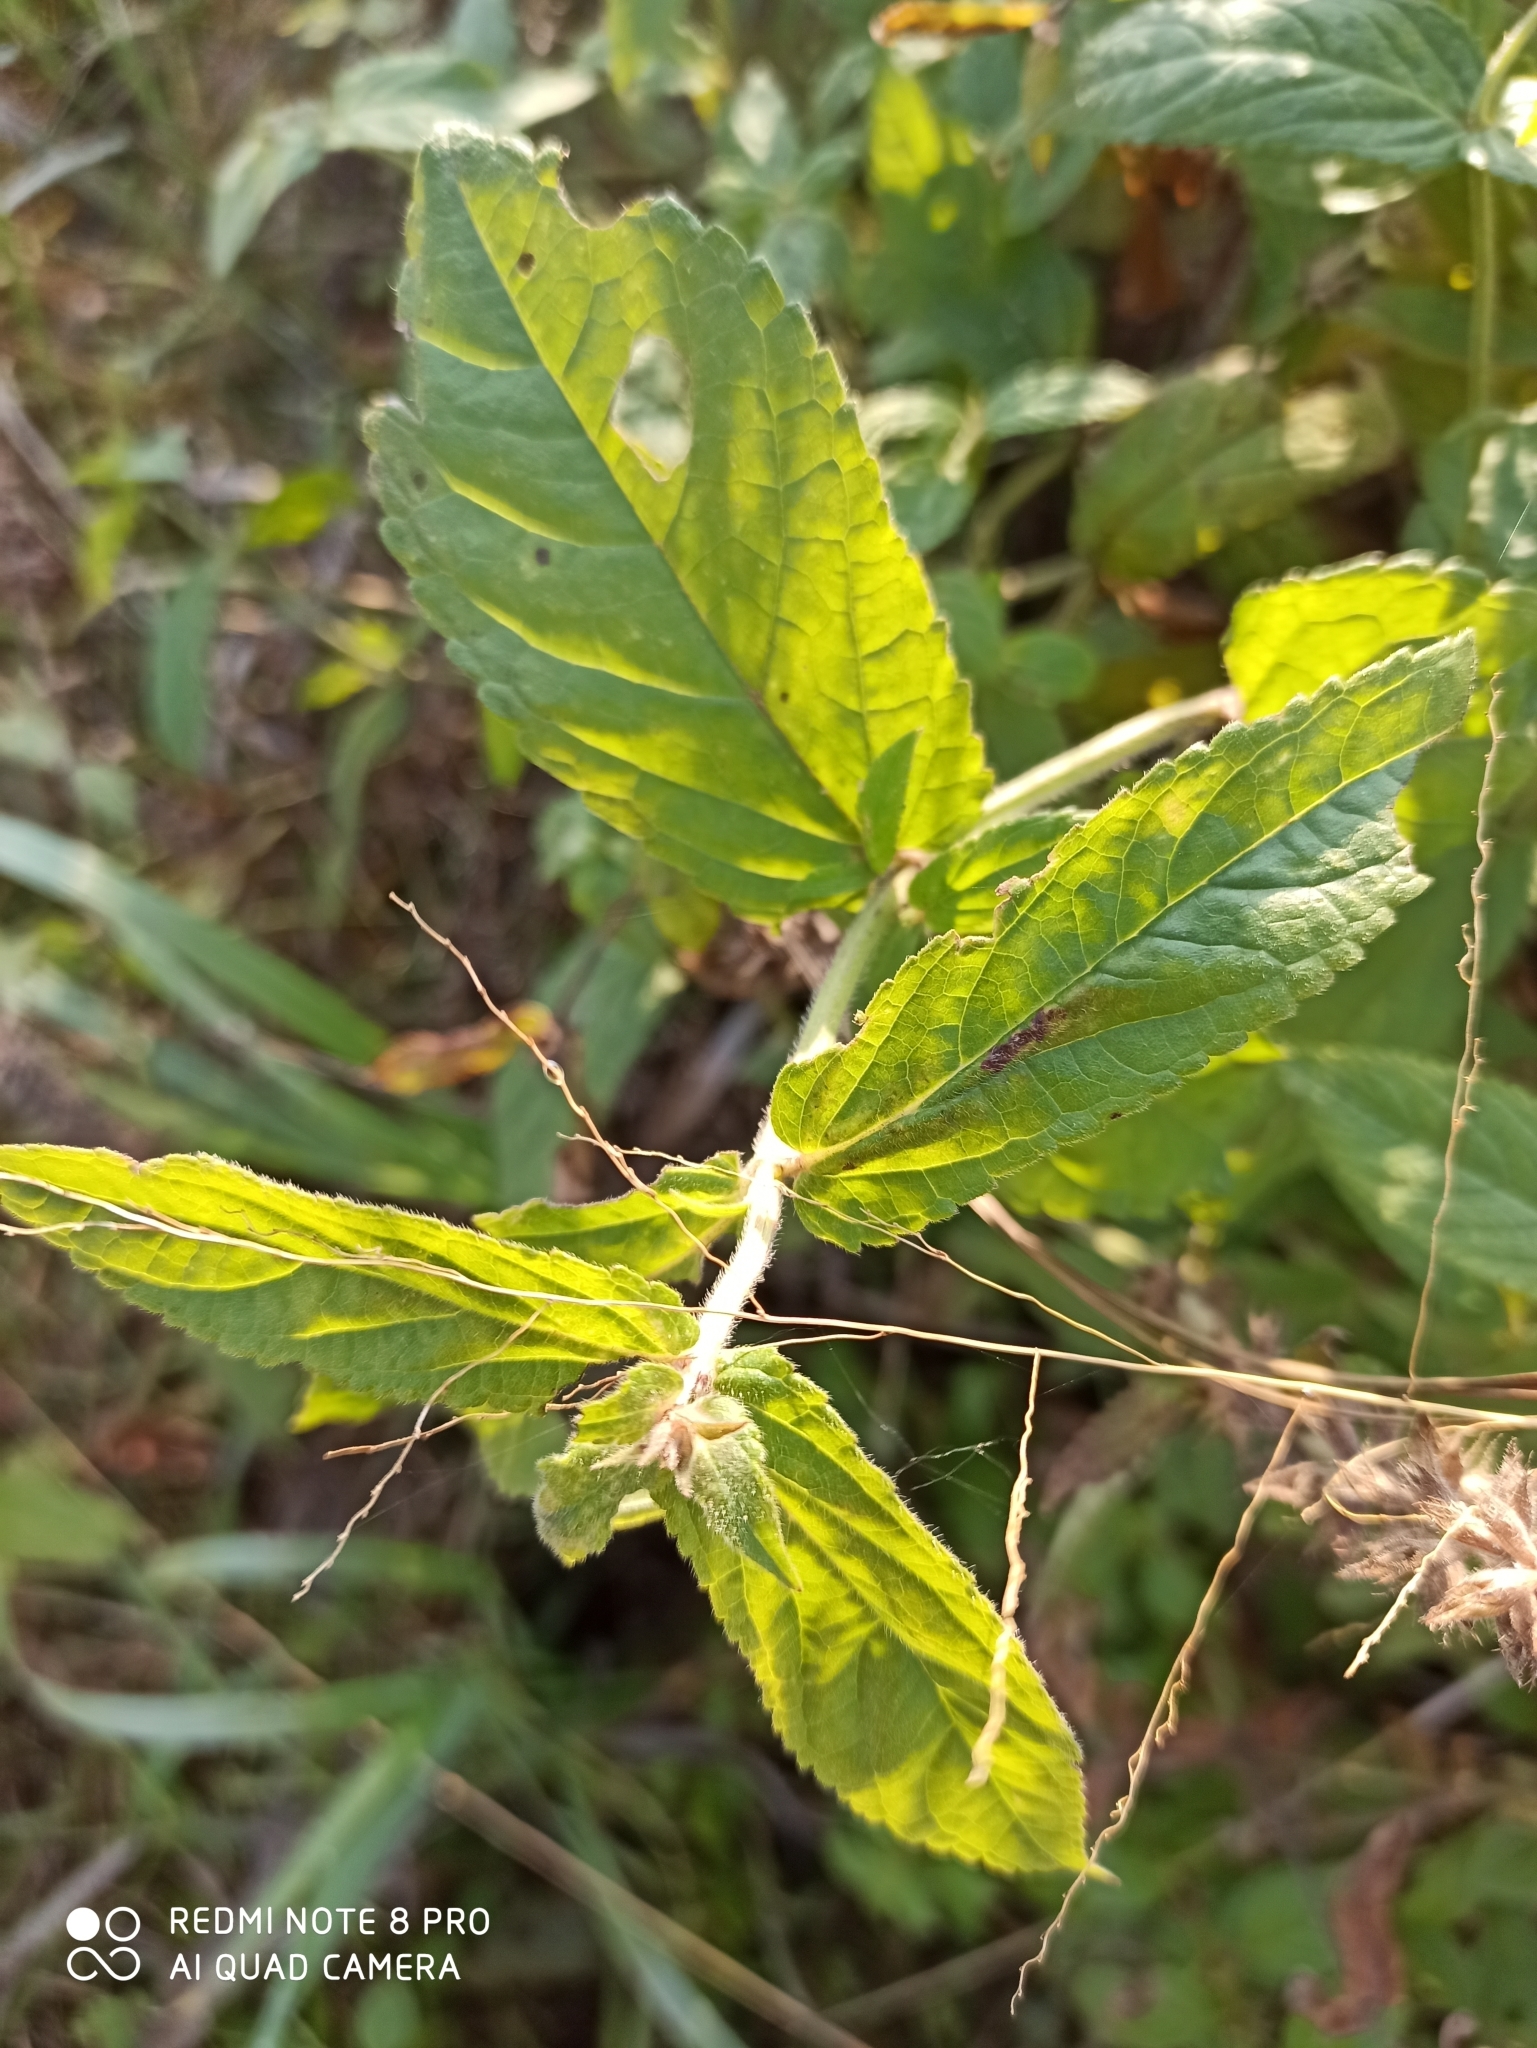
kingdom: Plantae
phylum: Tracheophyta
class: Magnoliopsida
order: Lamiales
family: Lamiaceae
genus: Stachys
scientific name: Stachys palustris
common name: Marsh woundwort
